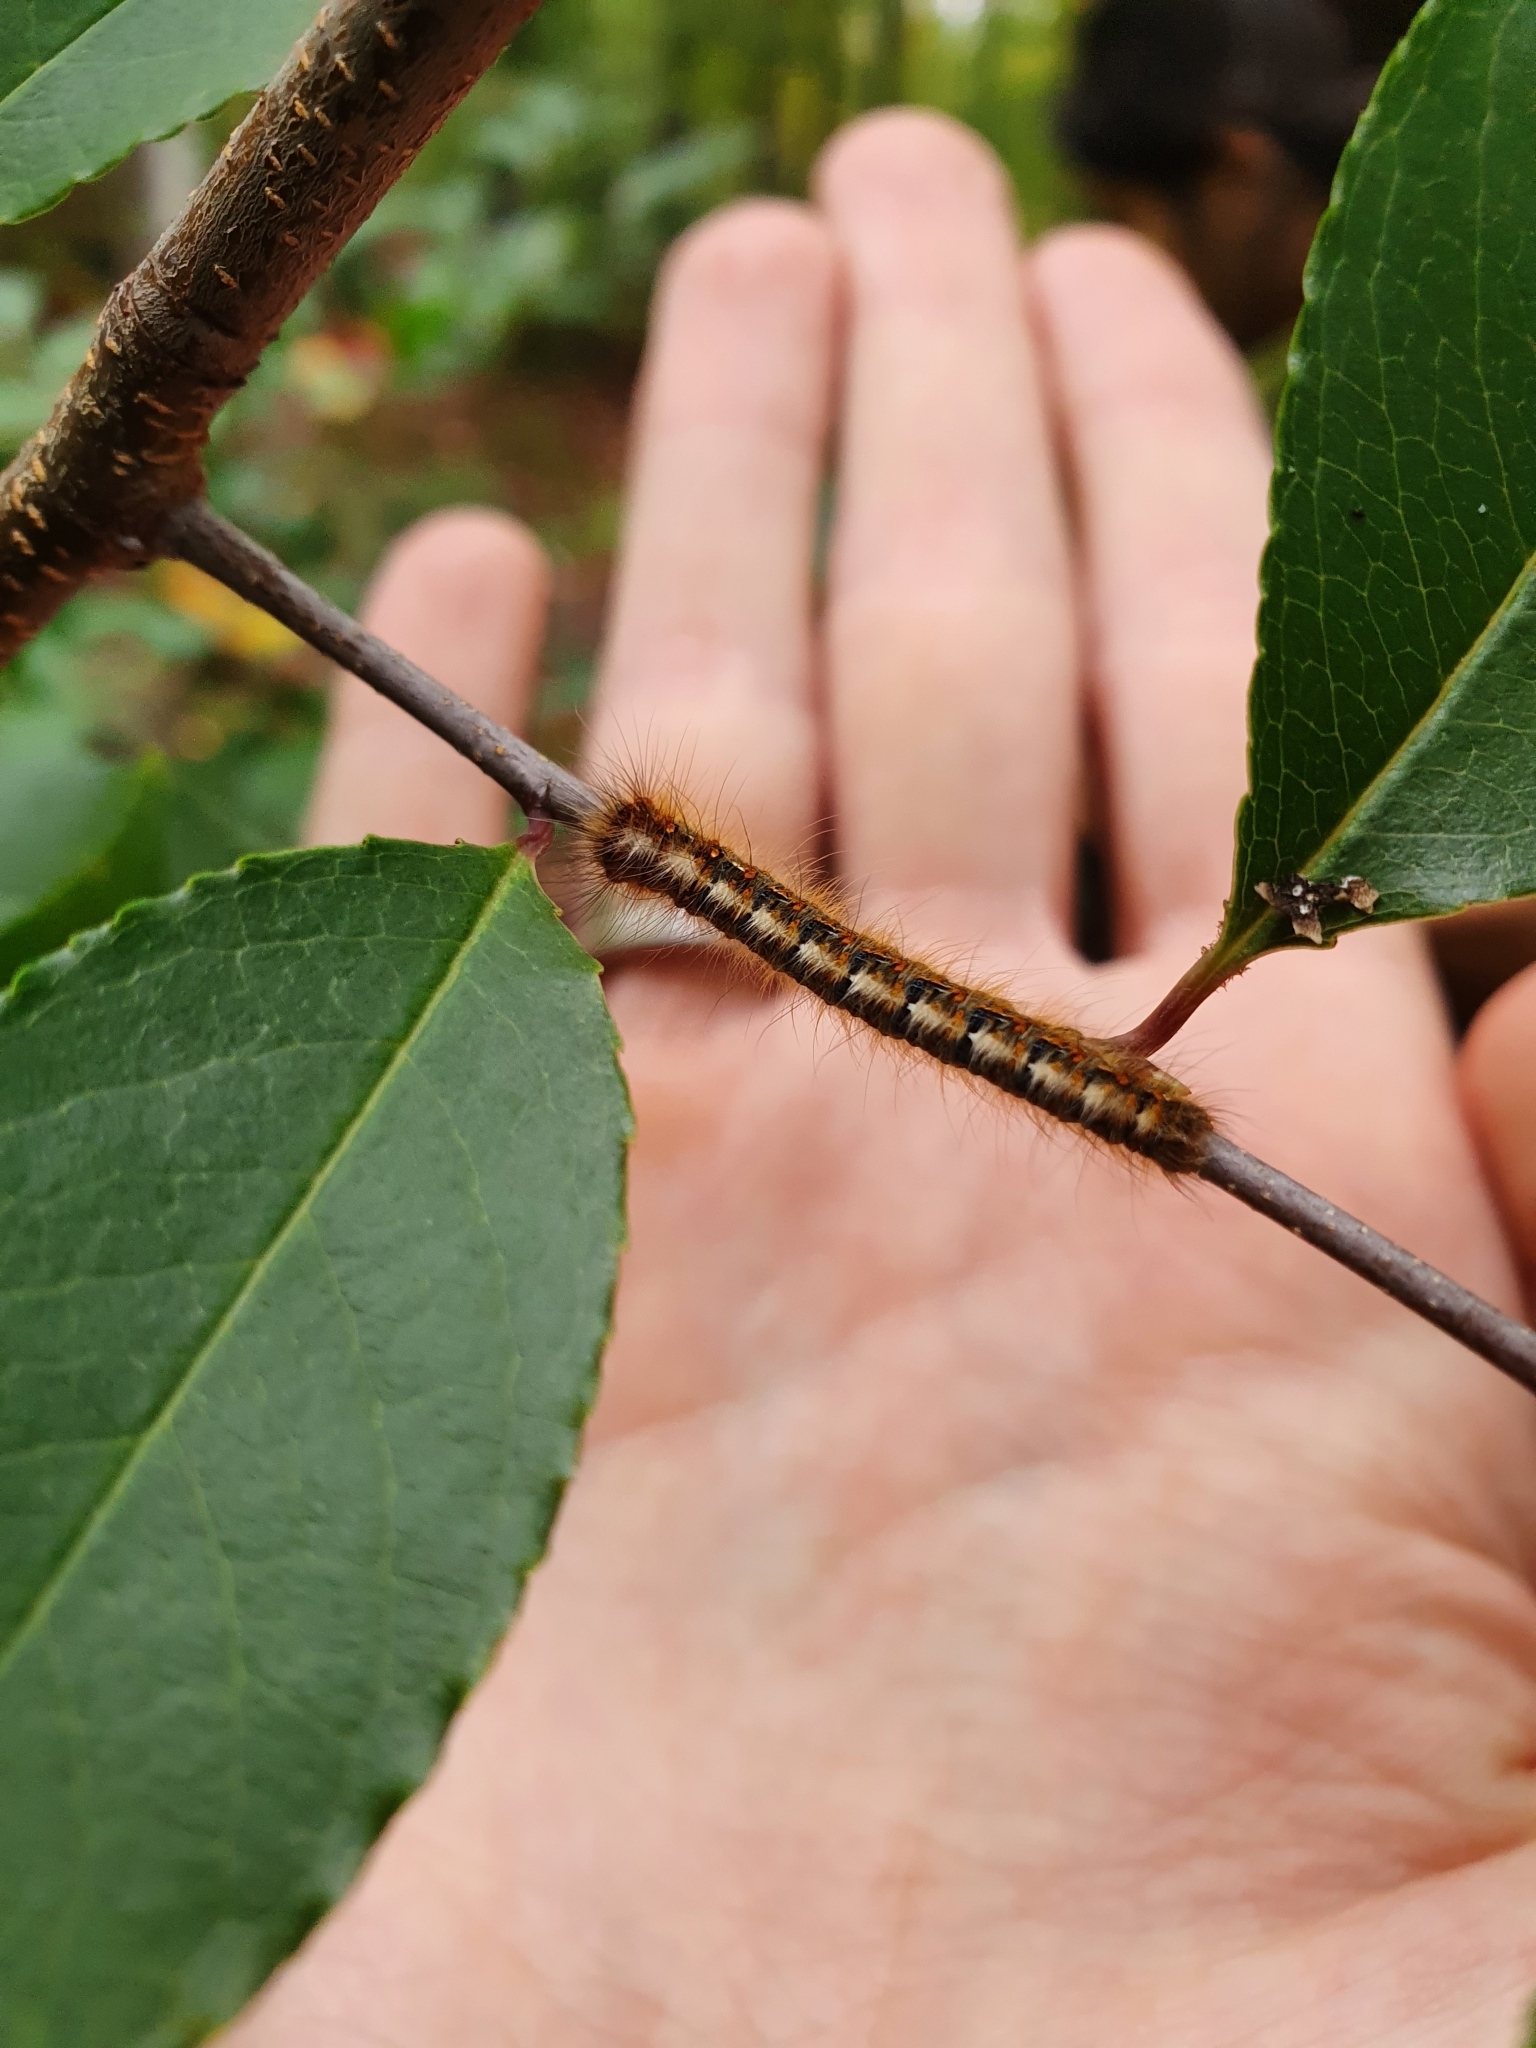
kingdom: Animalia
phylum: Arthropoda
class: Insecta
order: Lepidoptera
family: Lasiocampidae
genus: Lasiocampa
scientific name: Lasiocampa quercus
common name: Oak eggar
